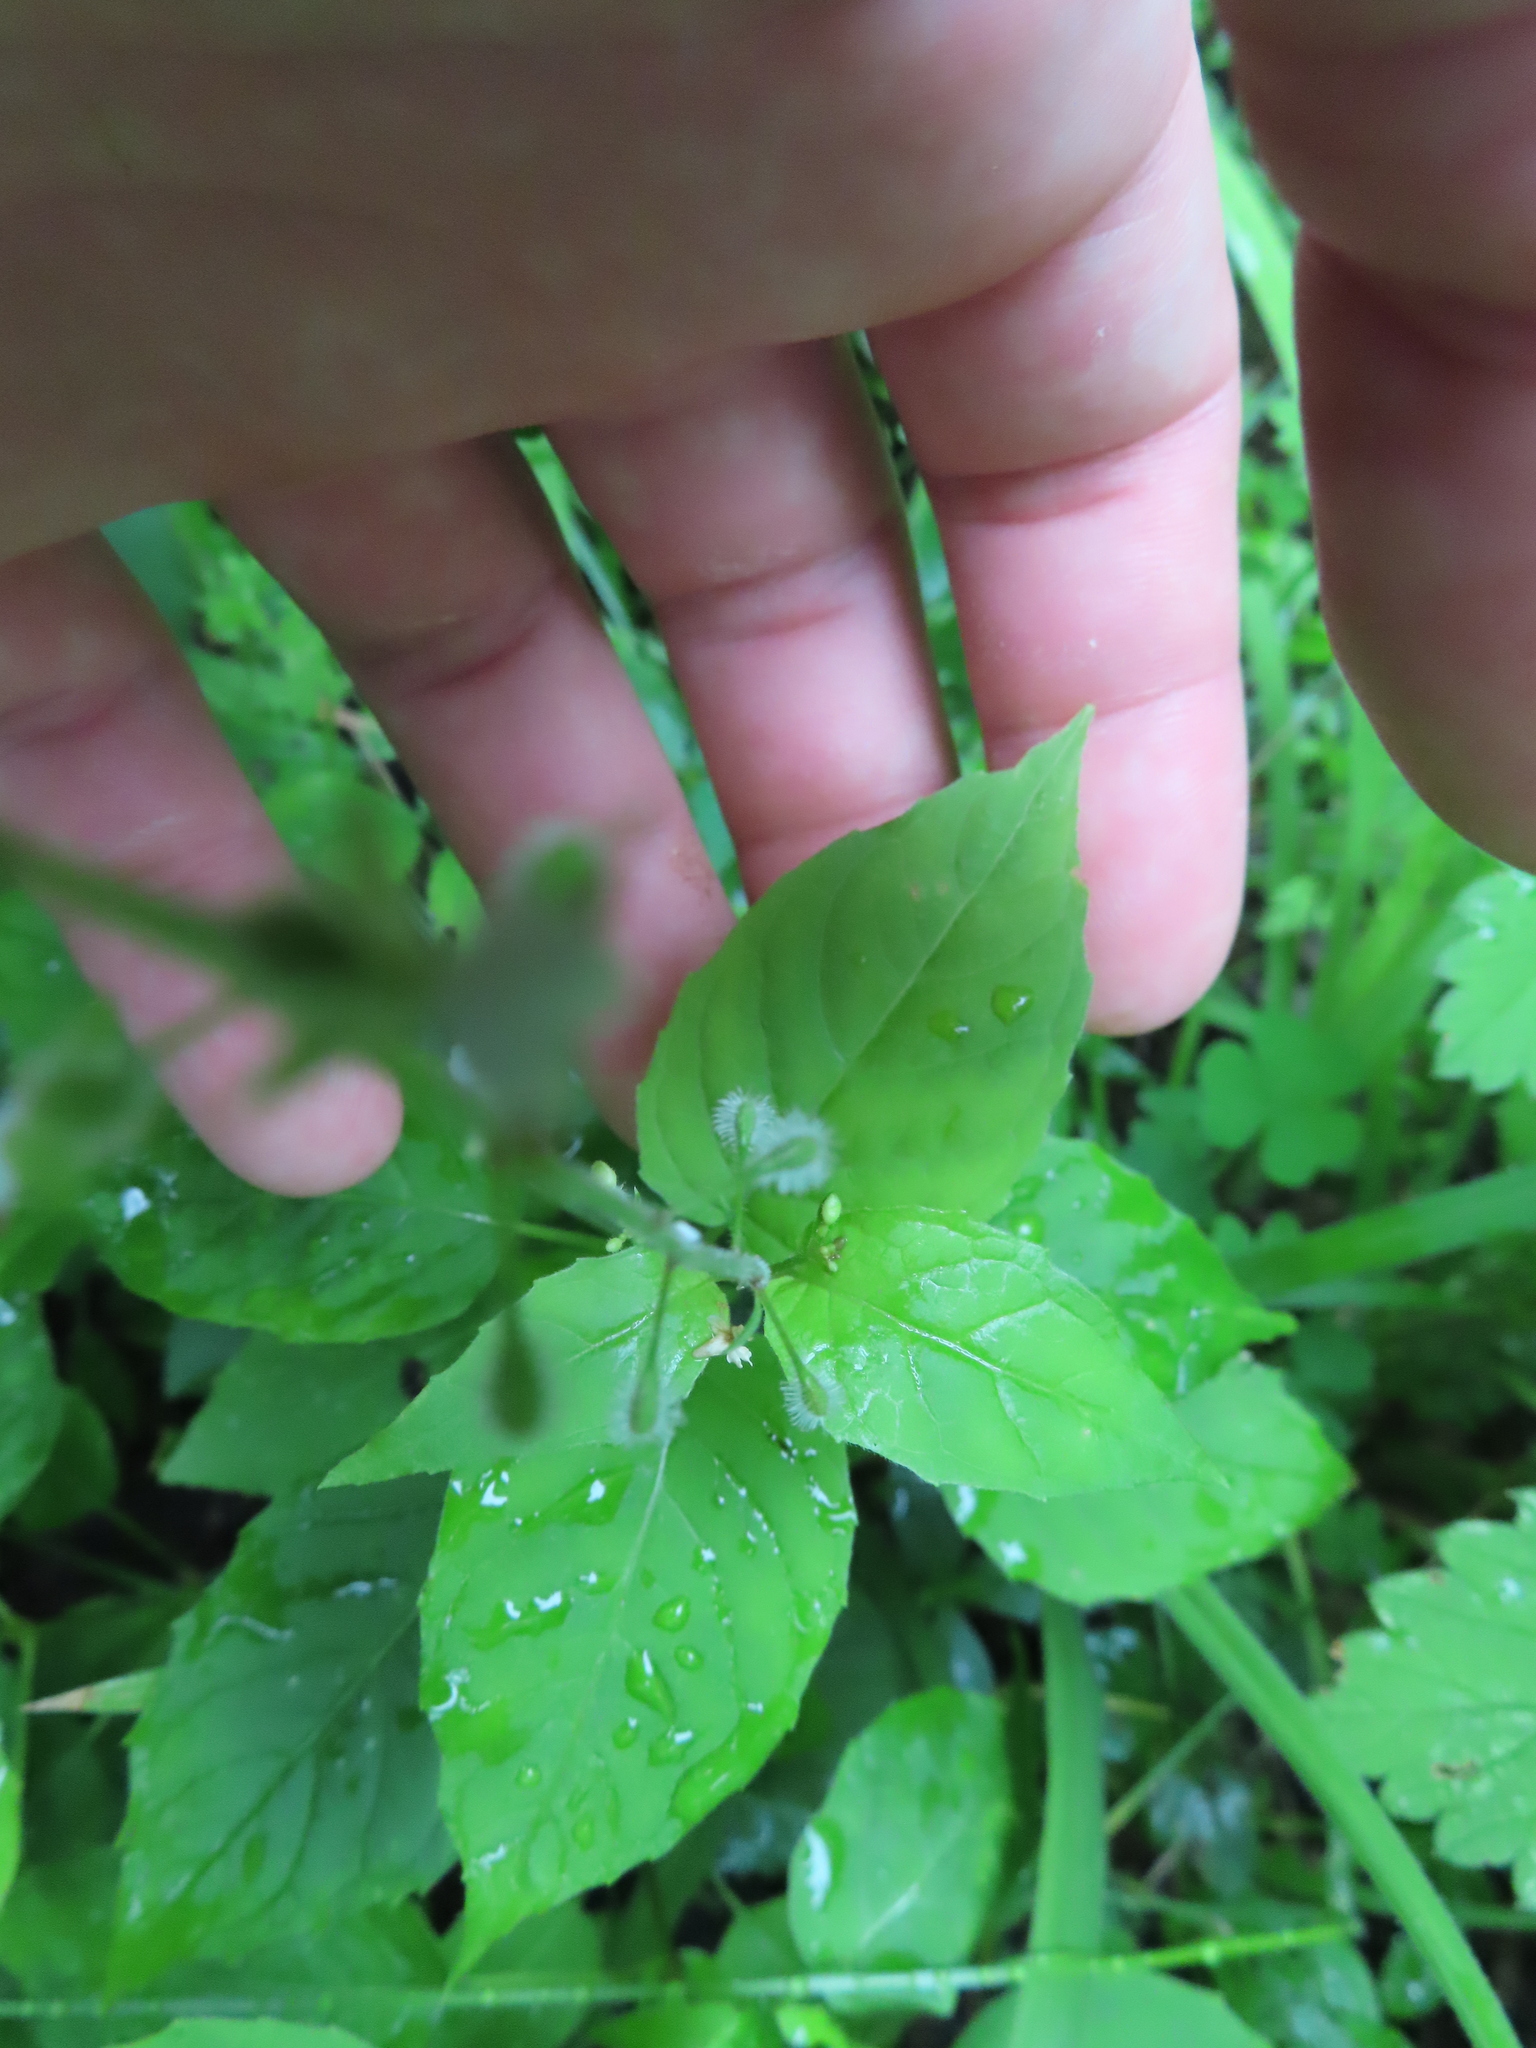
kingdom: Plantae
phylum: Tracheophyta
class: Magnoliopsida
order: Myrtales
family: Onagraceae
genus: Circaea
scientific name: Circaea canadensis
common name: Broad-leaved enchanter's nightshade
